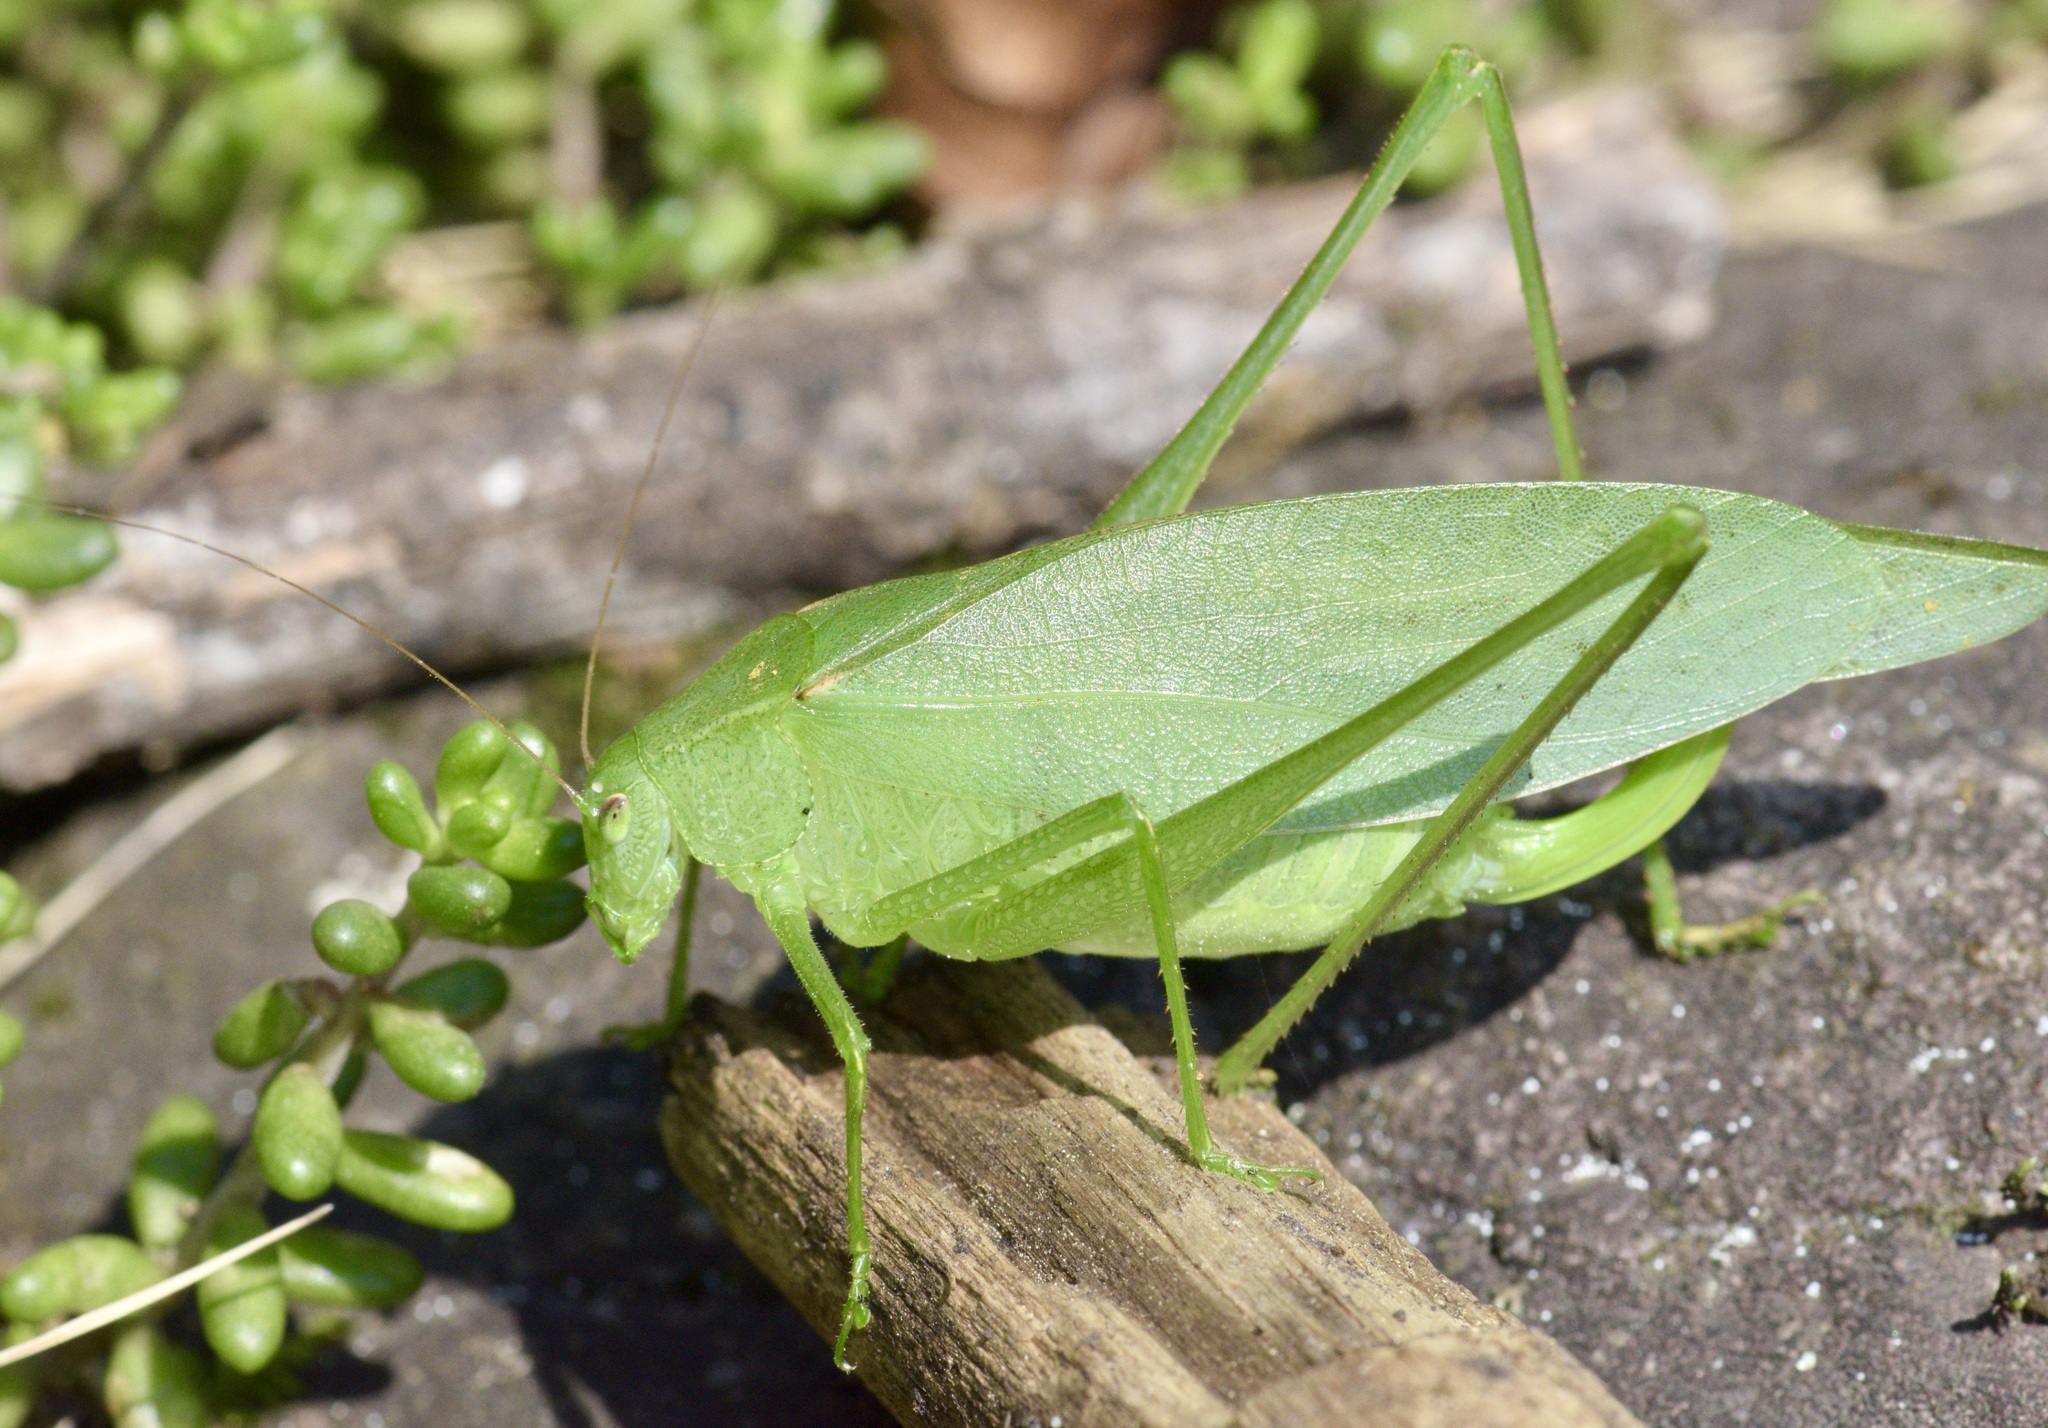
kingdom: Animalia
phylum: Arthropoda
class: Insecta
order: Orthoptera
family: Tettigoniidae
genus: Amblycorypha
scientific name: Amblycorypha oblongifolia
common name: Oblong-winged katydid
